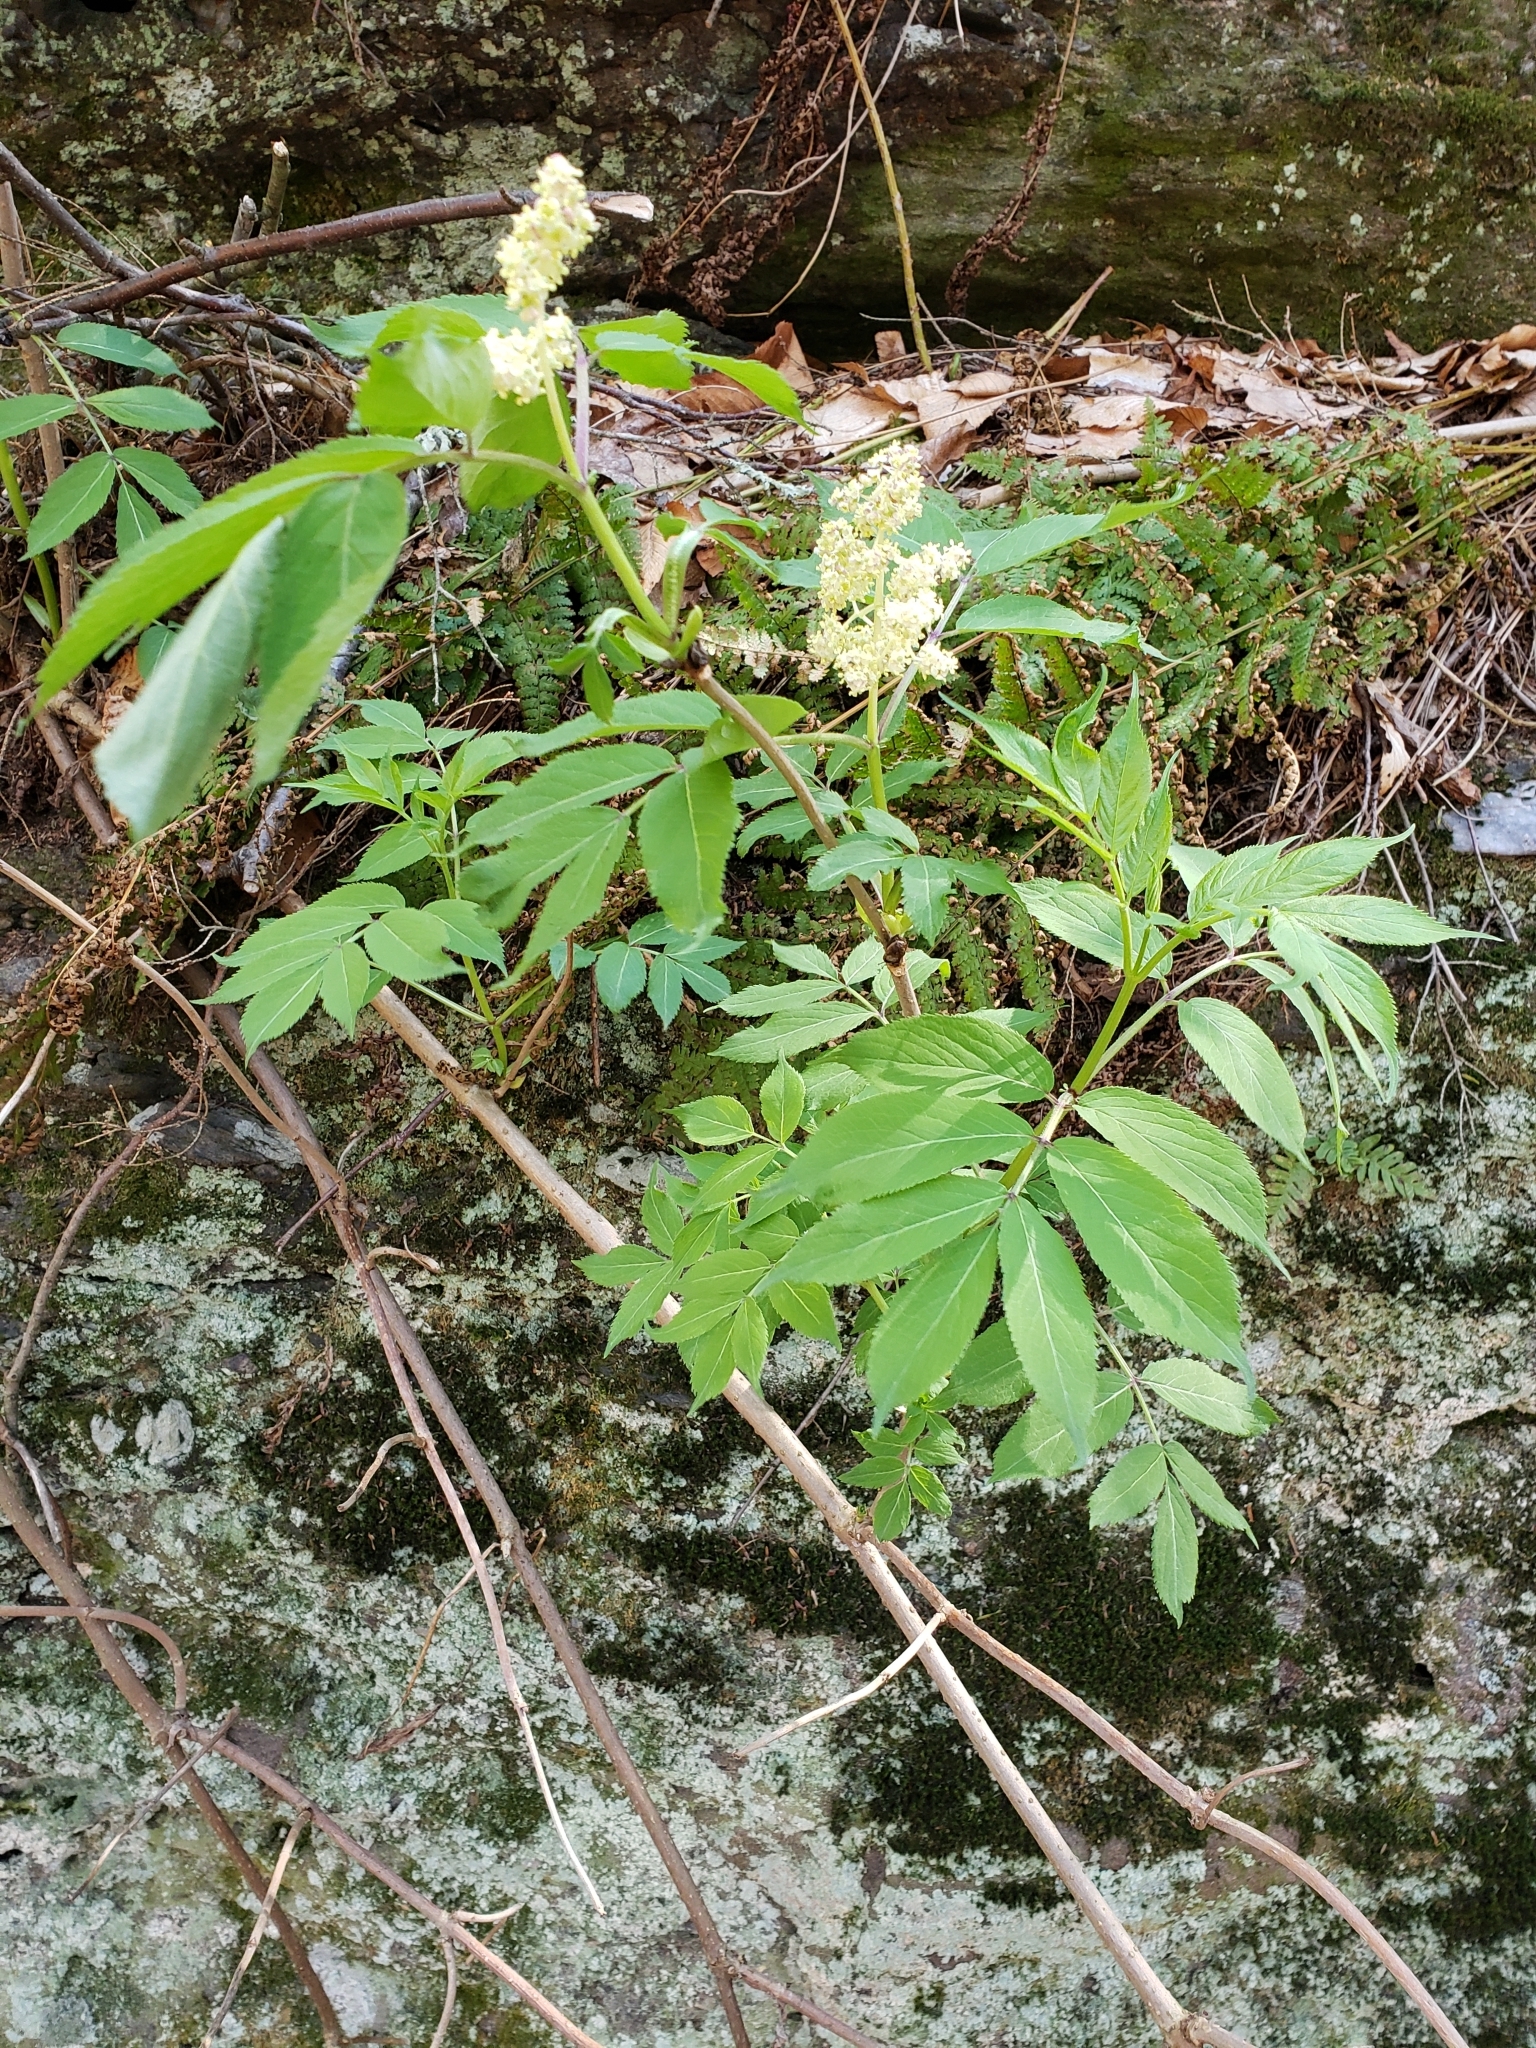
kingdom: Plantae
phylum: Tracheophyta
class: Magnoliopsida
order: Dipsacales
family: Viburnaceae
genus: Sambucus
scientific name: Sambucus racemosa
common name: Red-berried elder
